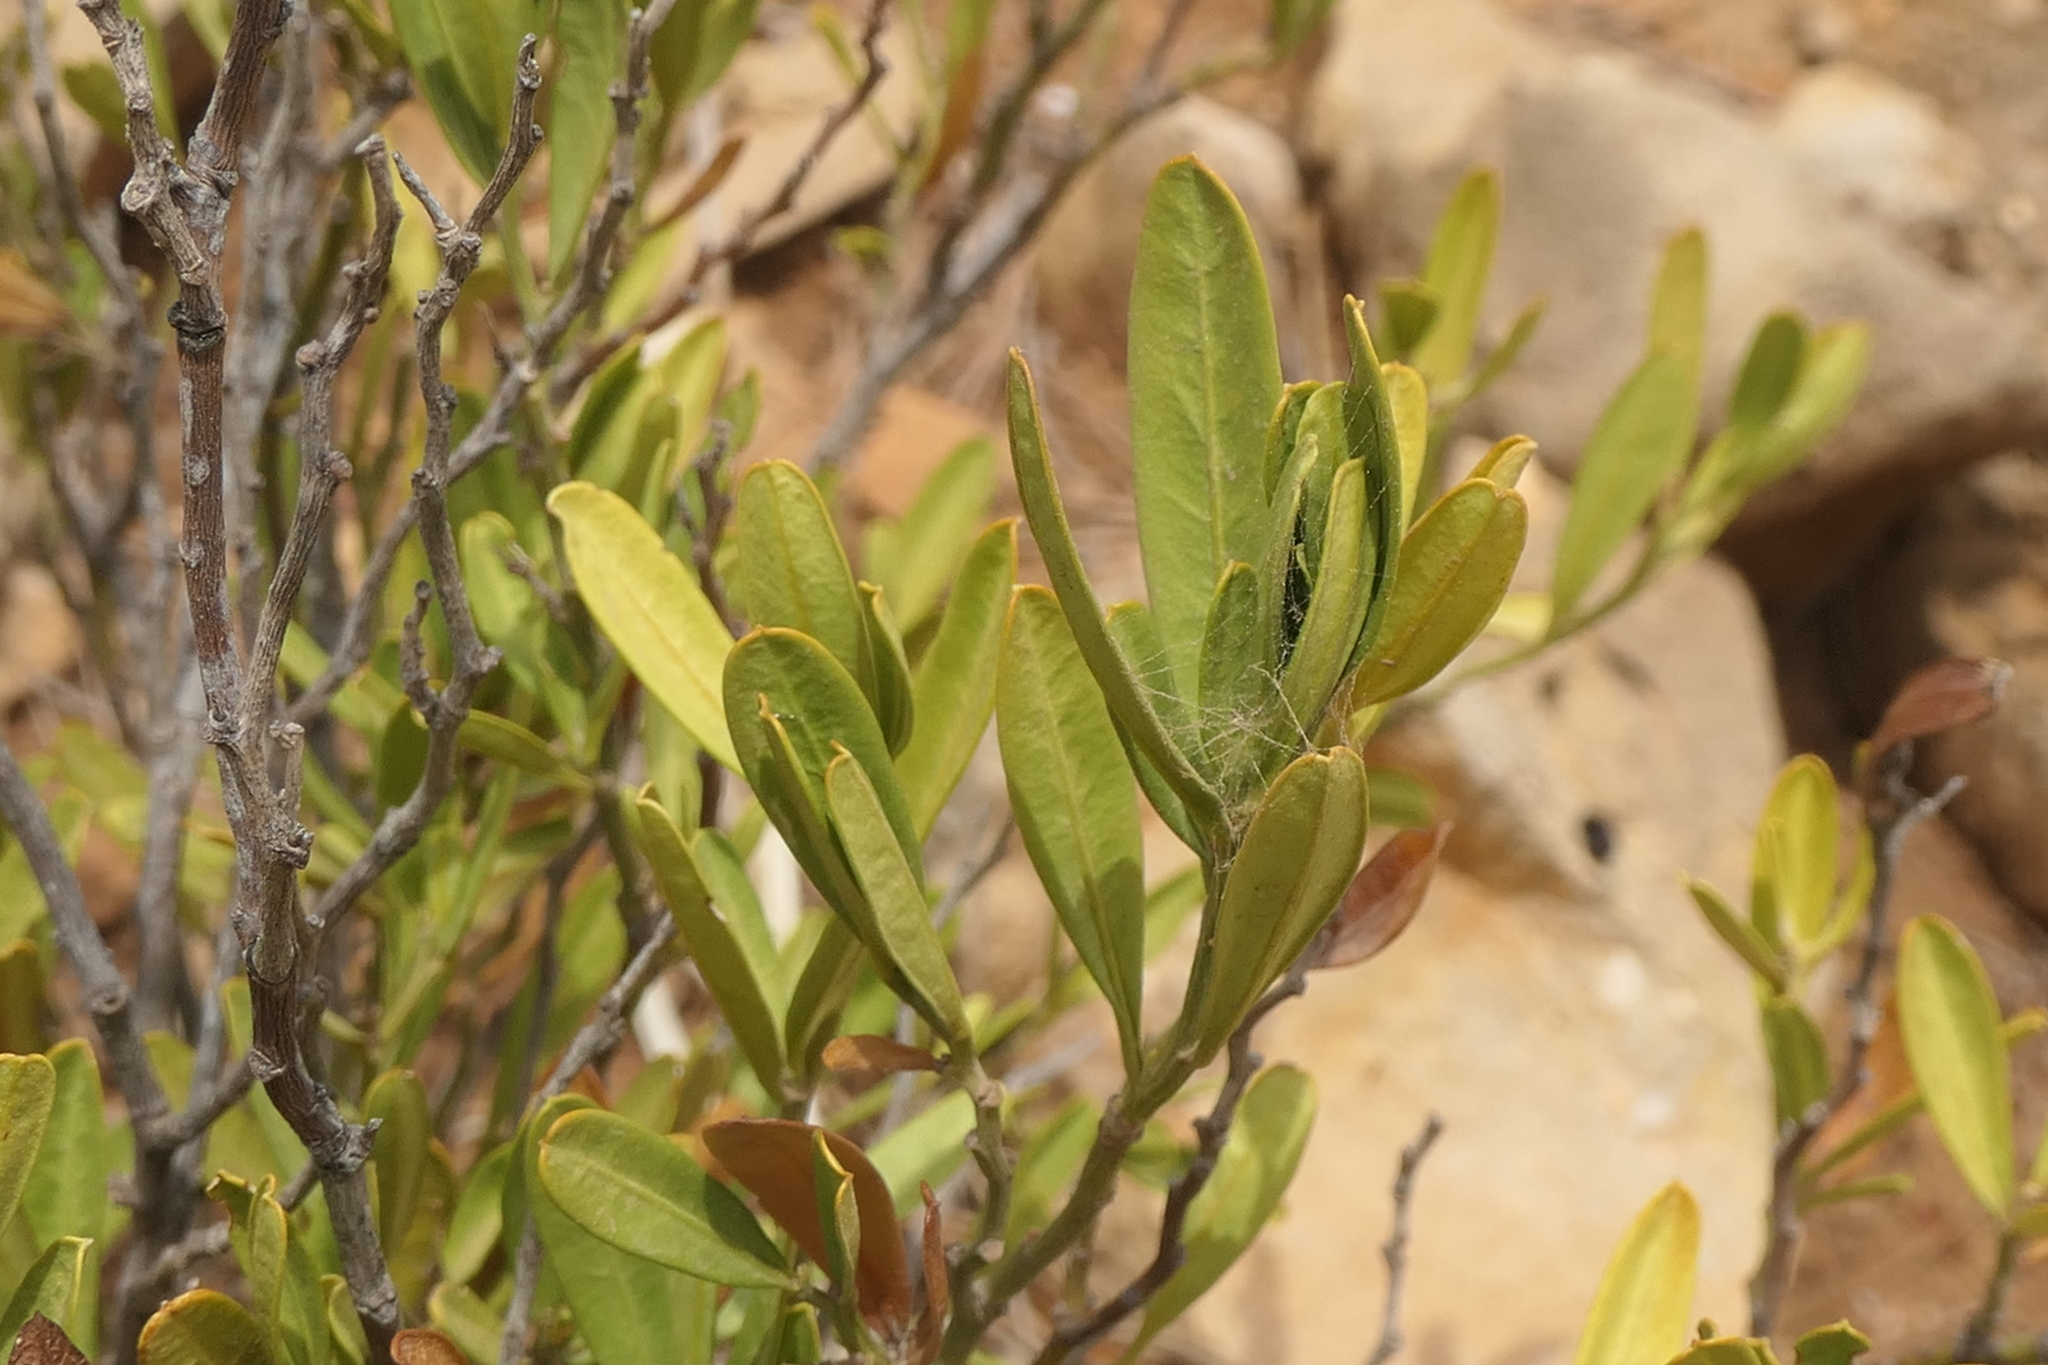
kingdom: Plantae
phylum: Tracheophyta
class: Magnoliopsida
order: Sapindales
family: Rutaceae
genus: Cneorum
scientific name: Cneorum tricoccon
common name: Spurge olive
